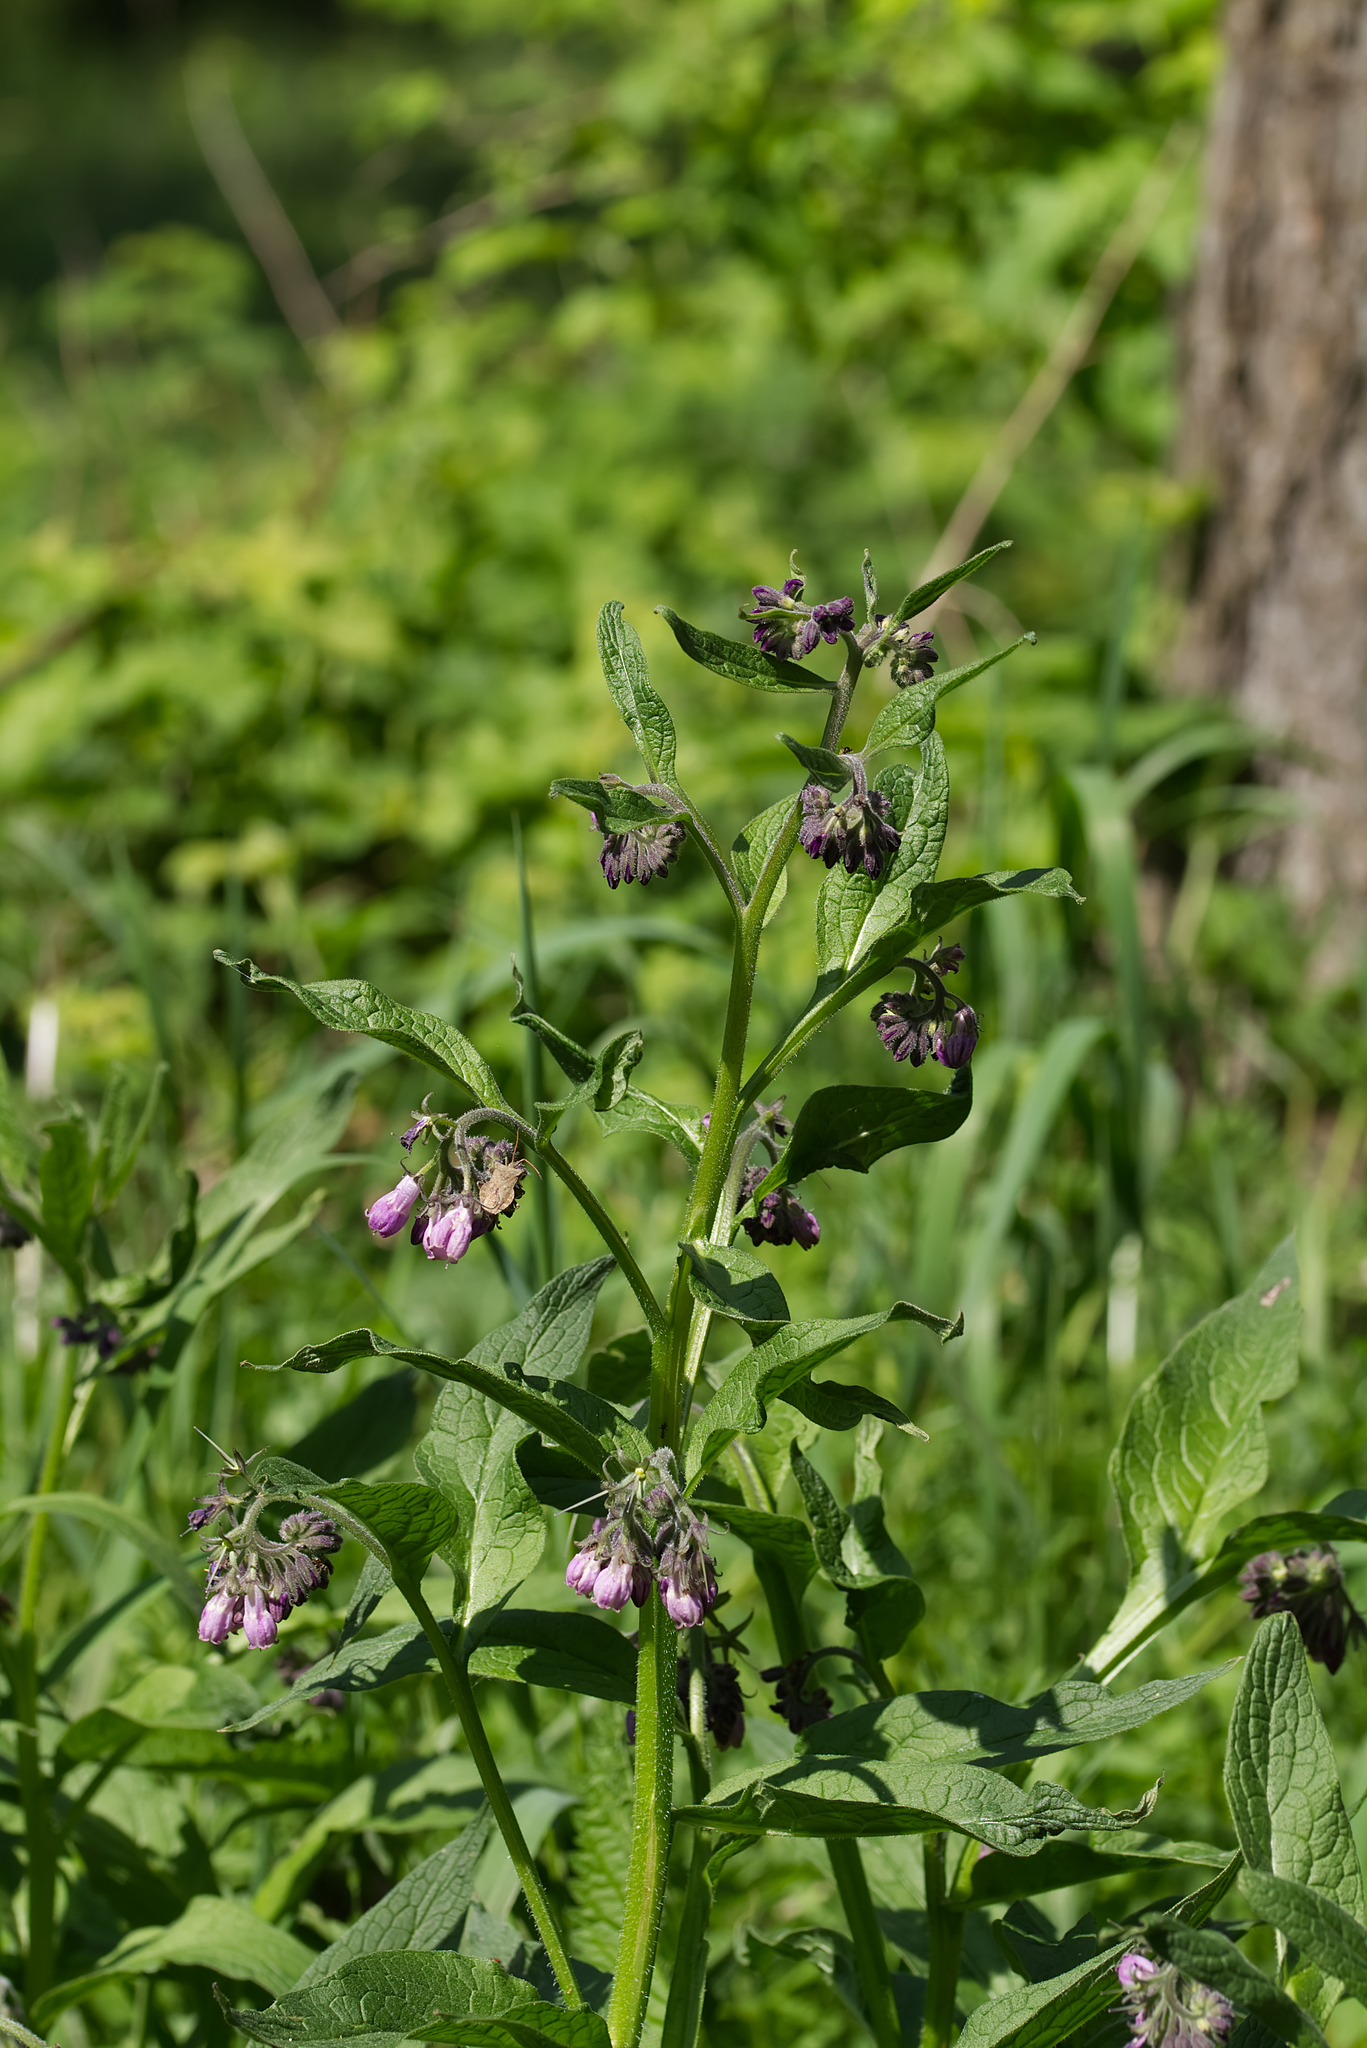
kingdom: Plantae
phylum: Tracheophyta
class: Magnoliopsida
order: Boraginales
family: Boraginaceae
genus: Symphytum
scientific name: Symphytum officinale
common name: Common comfrey
